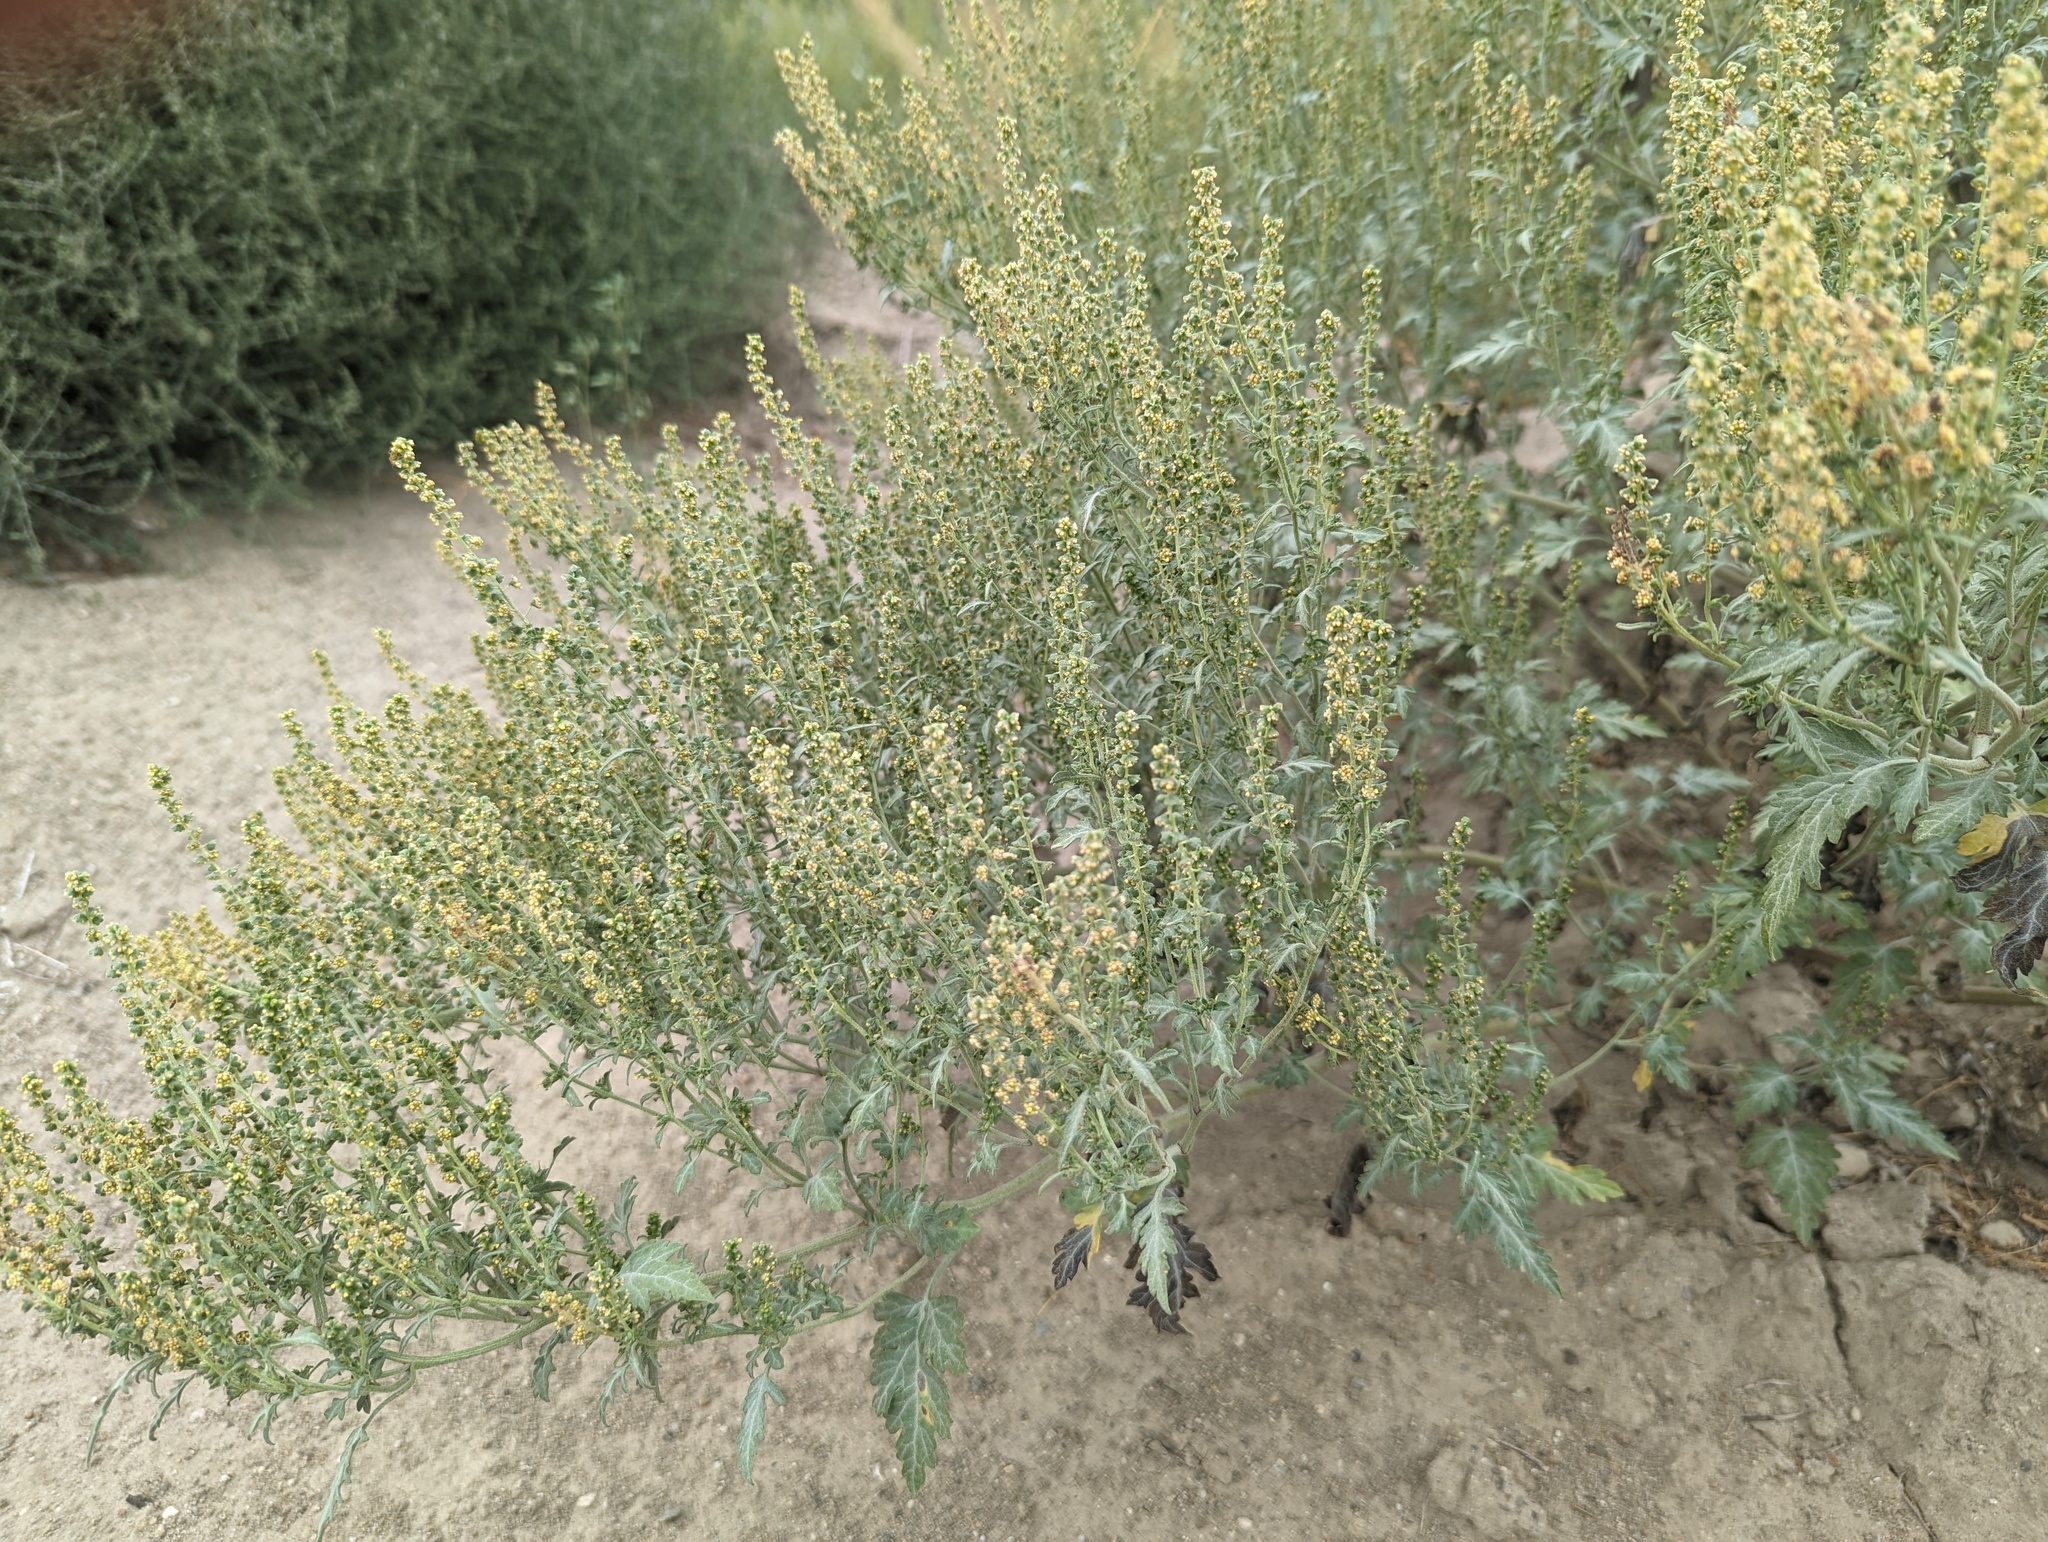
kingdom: Plantae
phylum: Tracheophyta
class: Magnoliopsida
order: Asterales
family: Asteraceae
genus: Ambrosia
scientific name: Ambrosia acanthicarpa
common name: Hooker's bur ragweed
